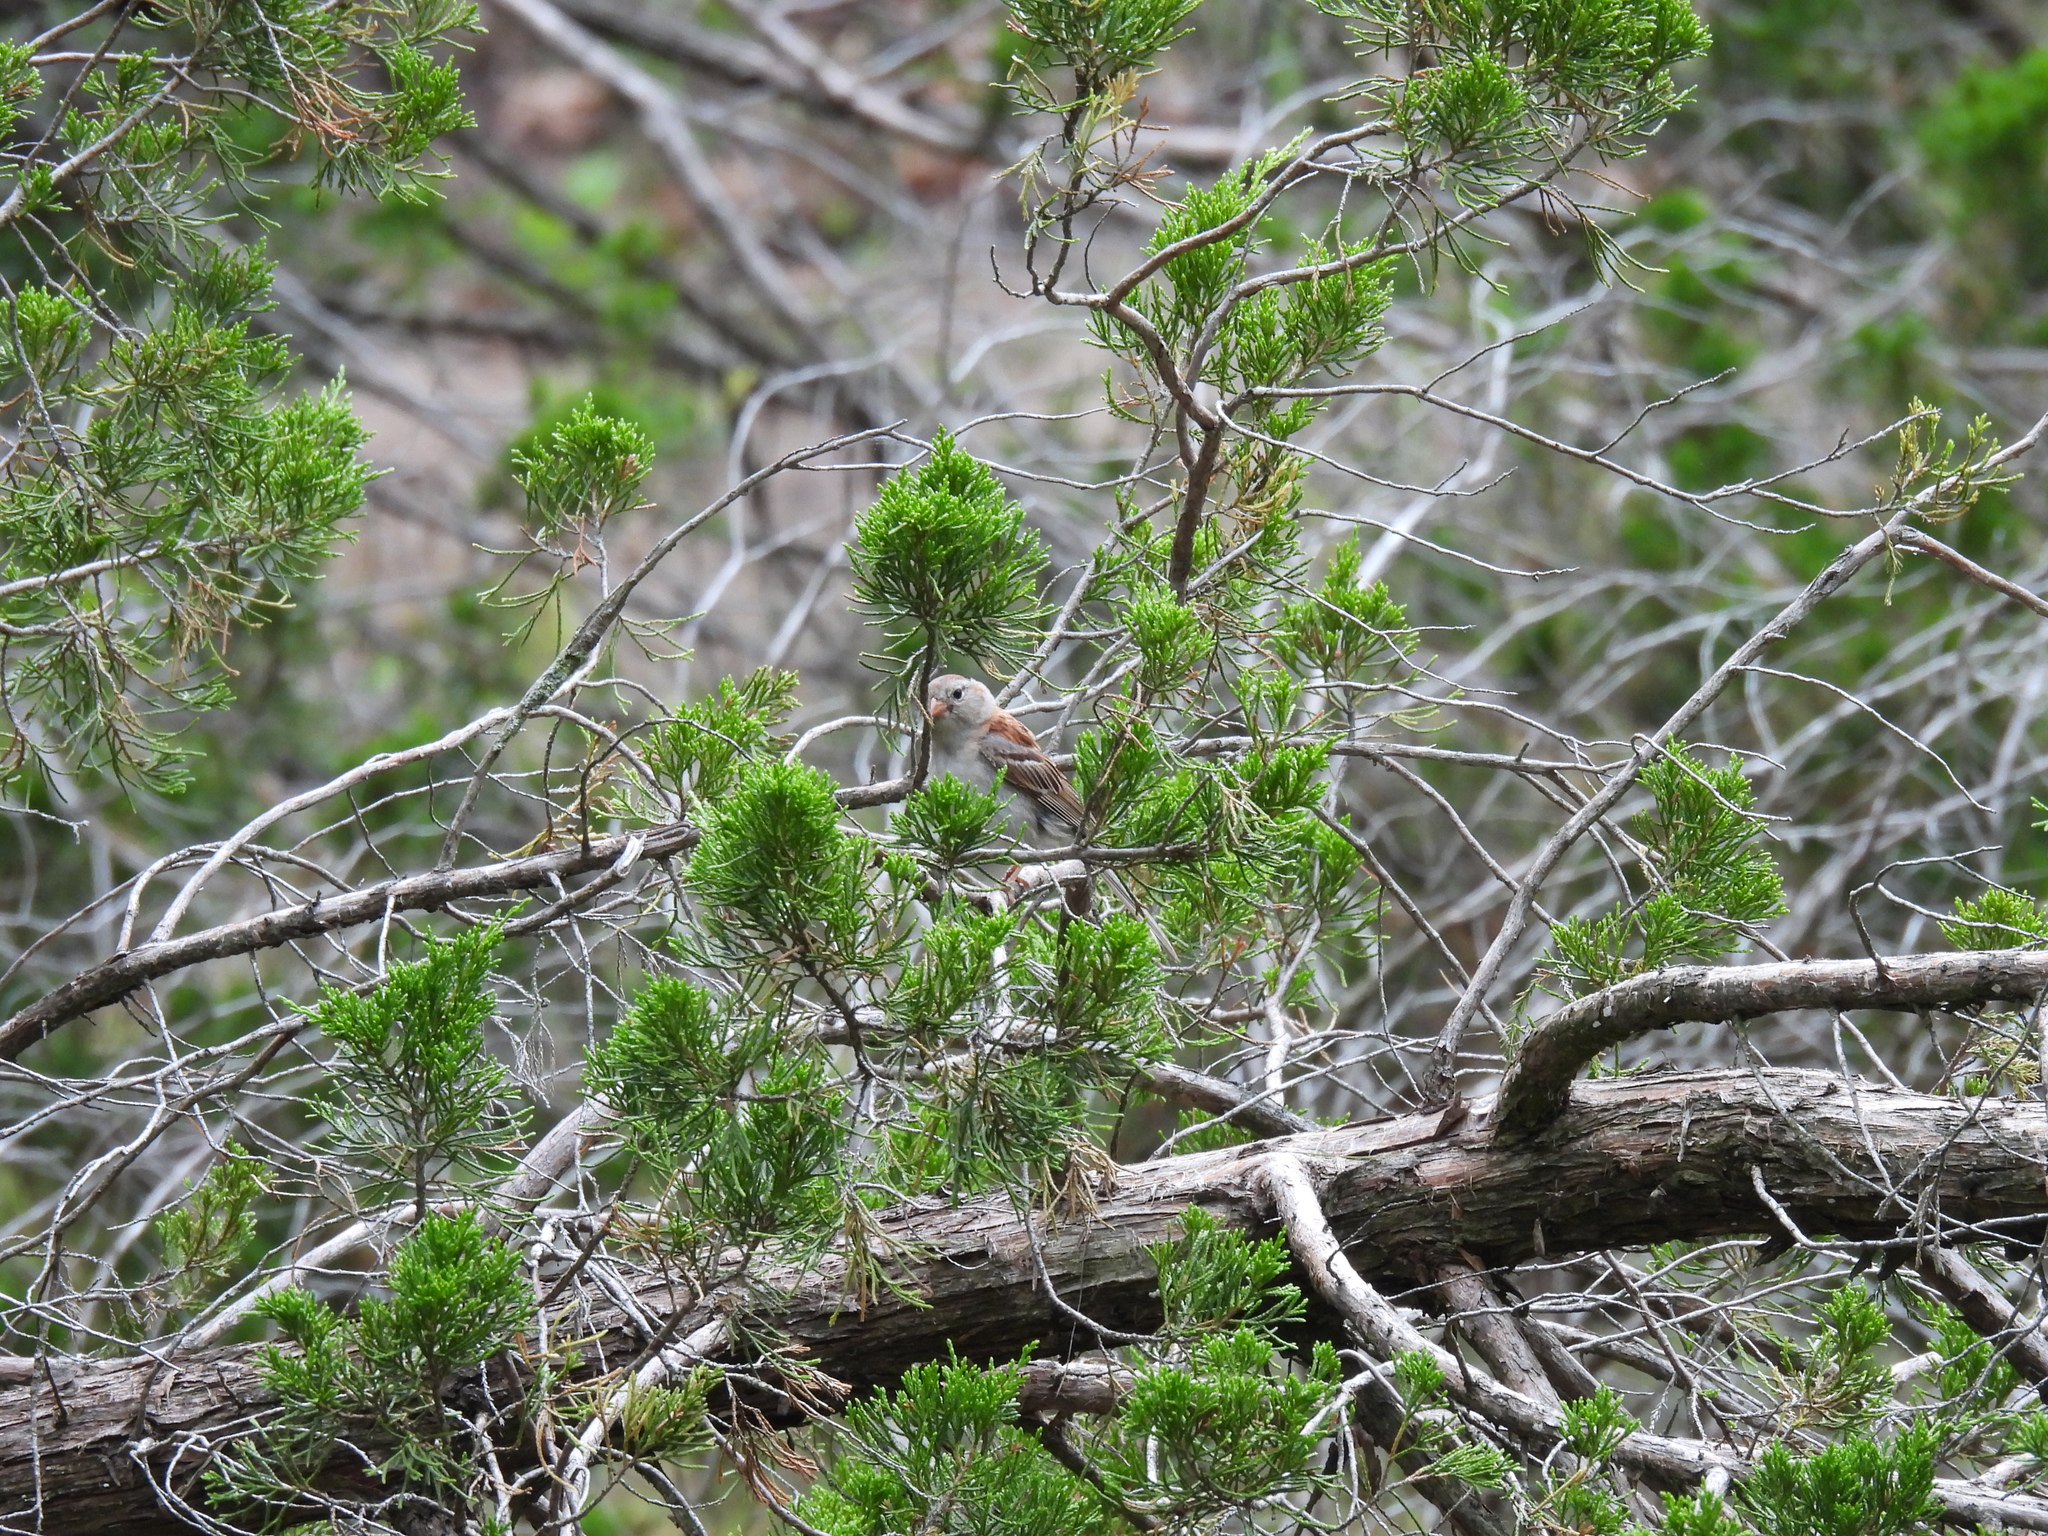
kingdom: Animalia
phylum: Chordata
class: Aves
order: Passeriformes
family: Passerellidae
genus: Spizella
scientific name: Spizella pusilla
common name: Field sparrow
